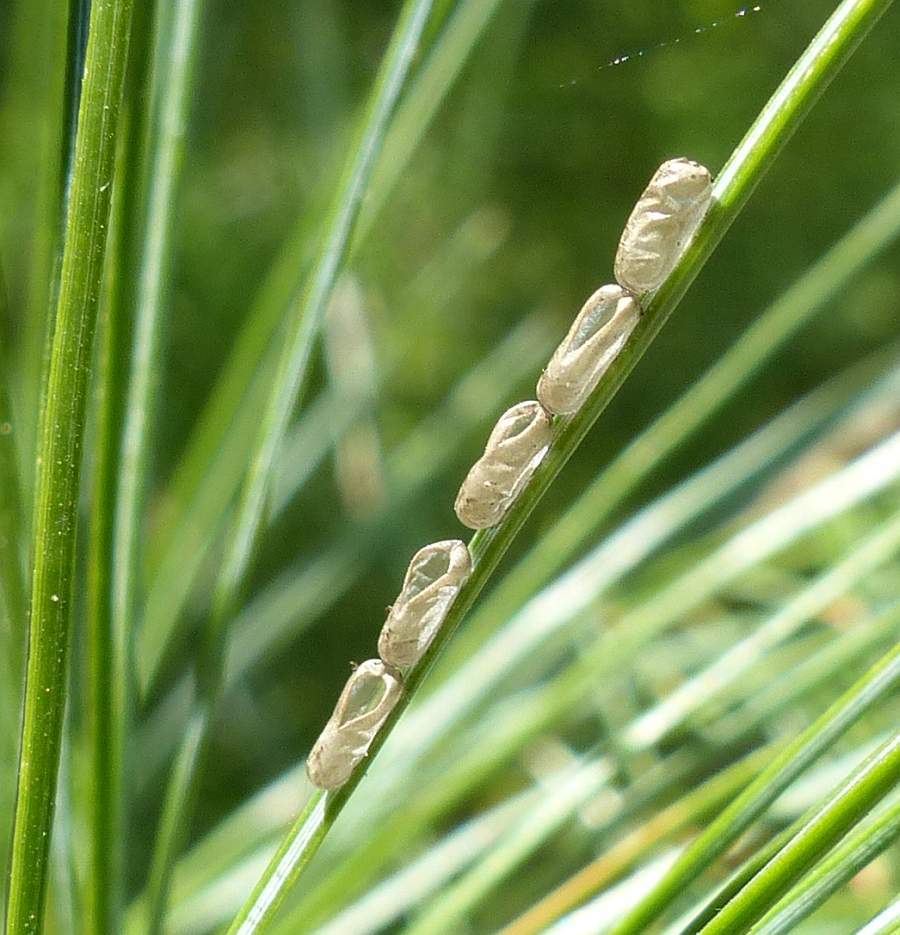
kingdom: Animalia
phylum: Arthropoda
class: Insecta
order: Hymenoptera
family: Pamphiliidae
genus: Acantholyda
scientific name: Acantholyda erythrocephala
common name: Pine false webworm
